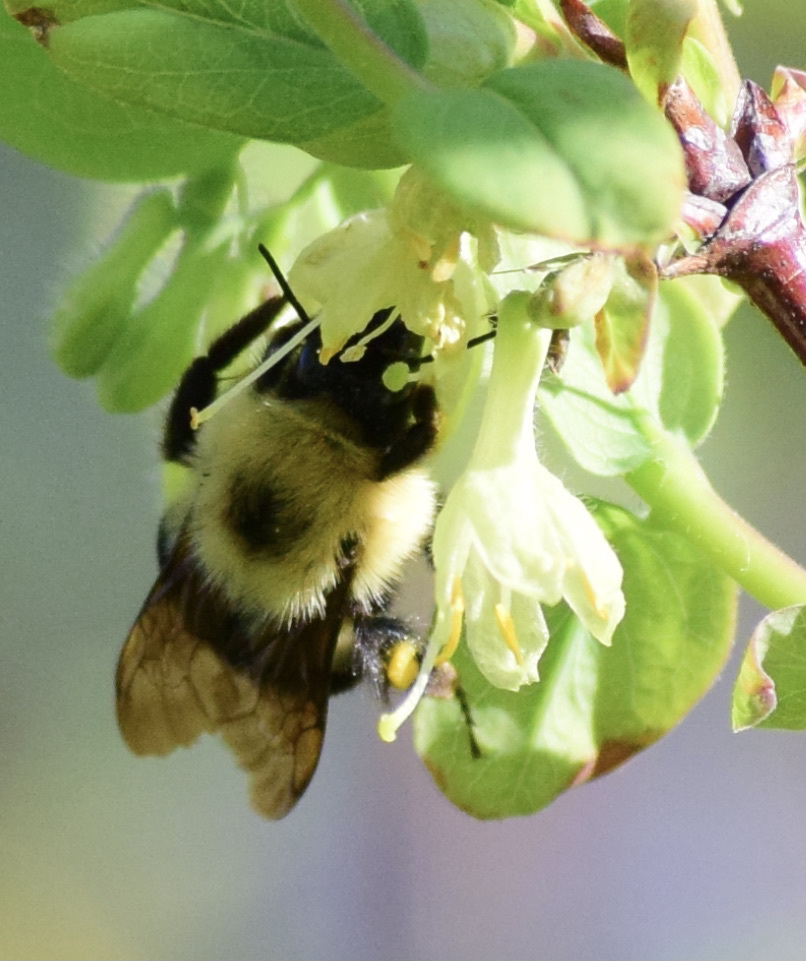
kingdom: Animalia
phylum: Arthropoda
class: Insecta
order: Hymenoptera
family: Apidae
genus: Bombus
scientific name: Bombus bimaculatus
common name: Two-spotted bumble bee
